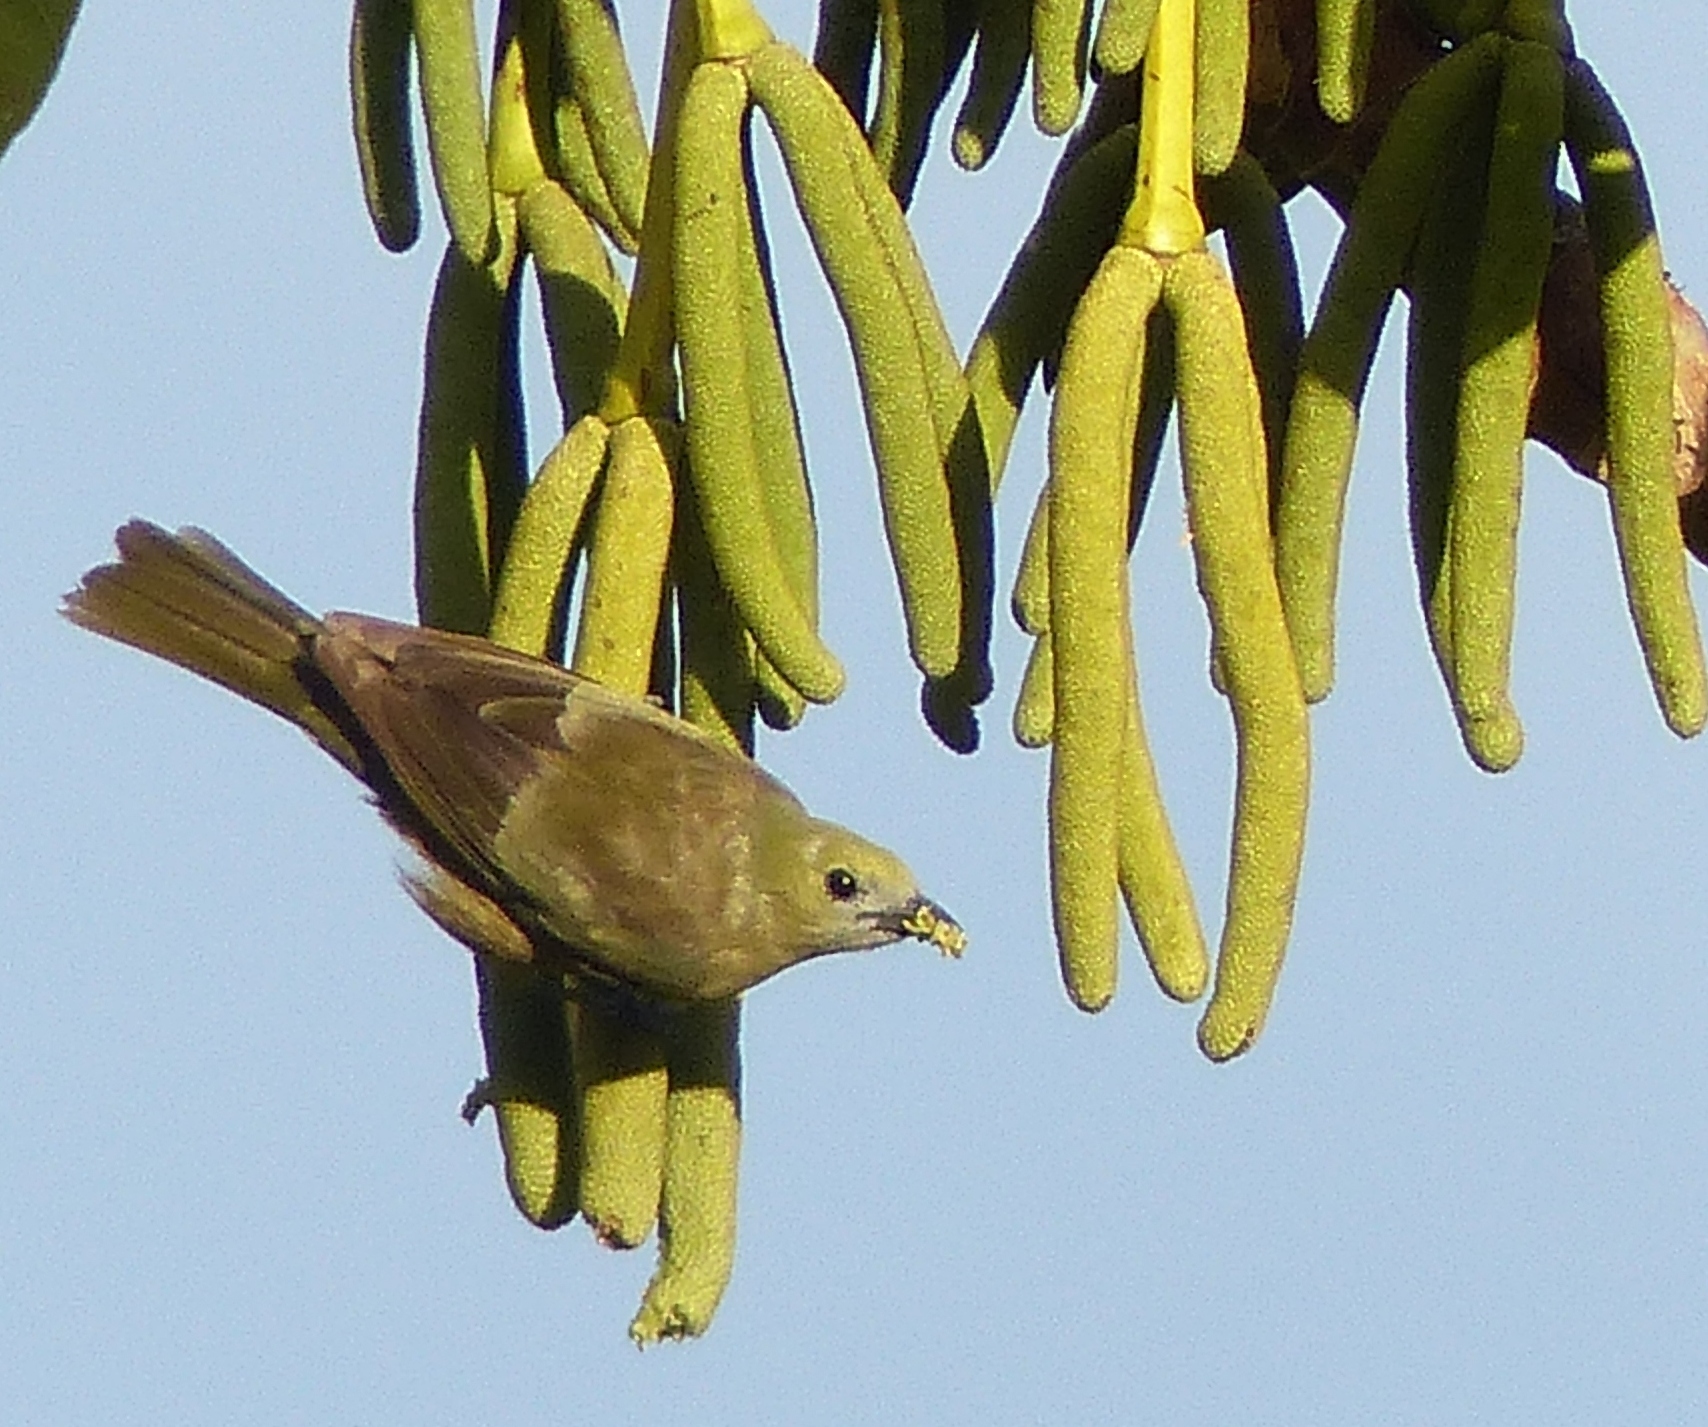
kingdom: Animalia
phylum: Chordata
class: Aves
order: Passeriformes
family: Thraupidae
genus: Thraupis
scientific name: Thraupis palmarum
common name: Palm tanager
